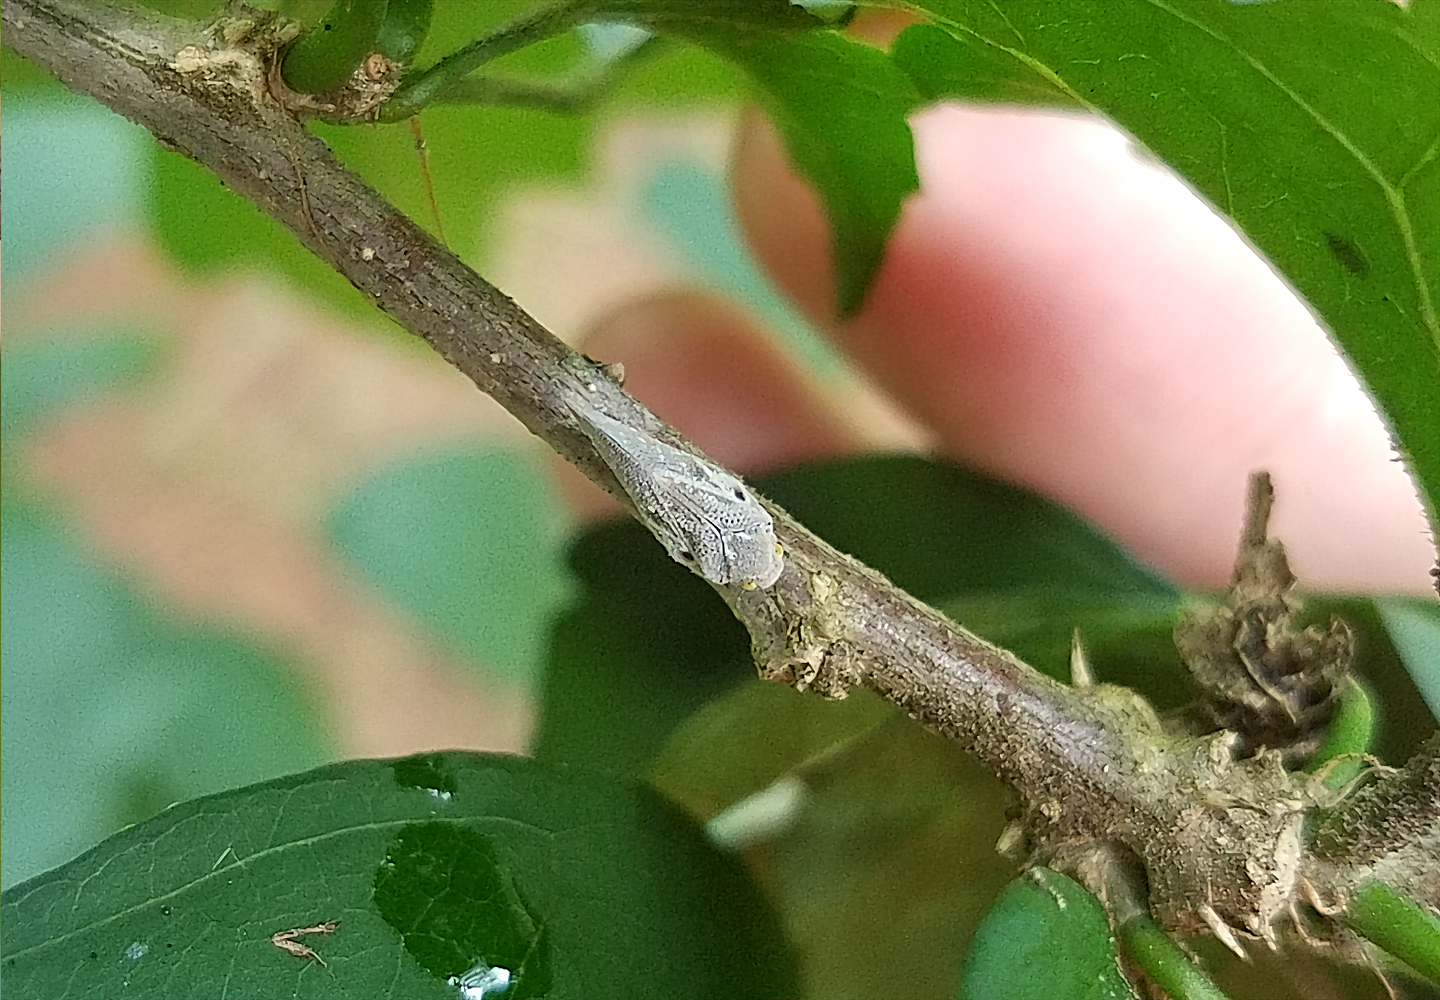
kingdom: Animalia
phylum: Arthropoda
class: Insecta
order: Hemiptera
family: Flatidae
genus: Metcalfa
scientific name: Metcalfa pruinosa
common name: Citrus flatid planthopper
